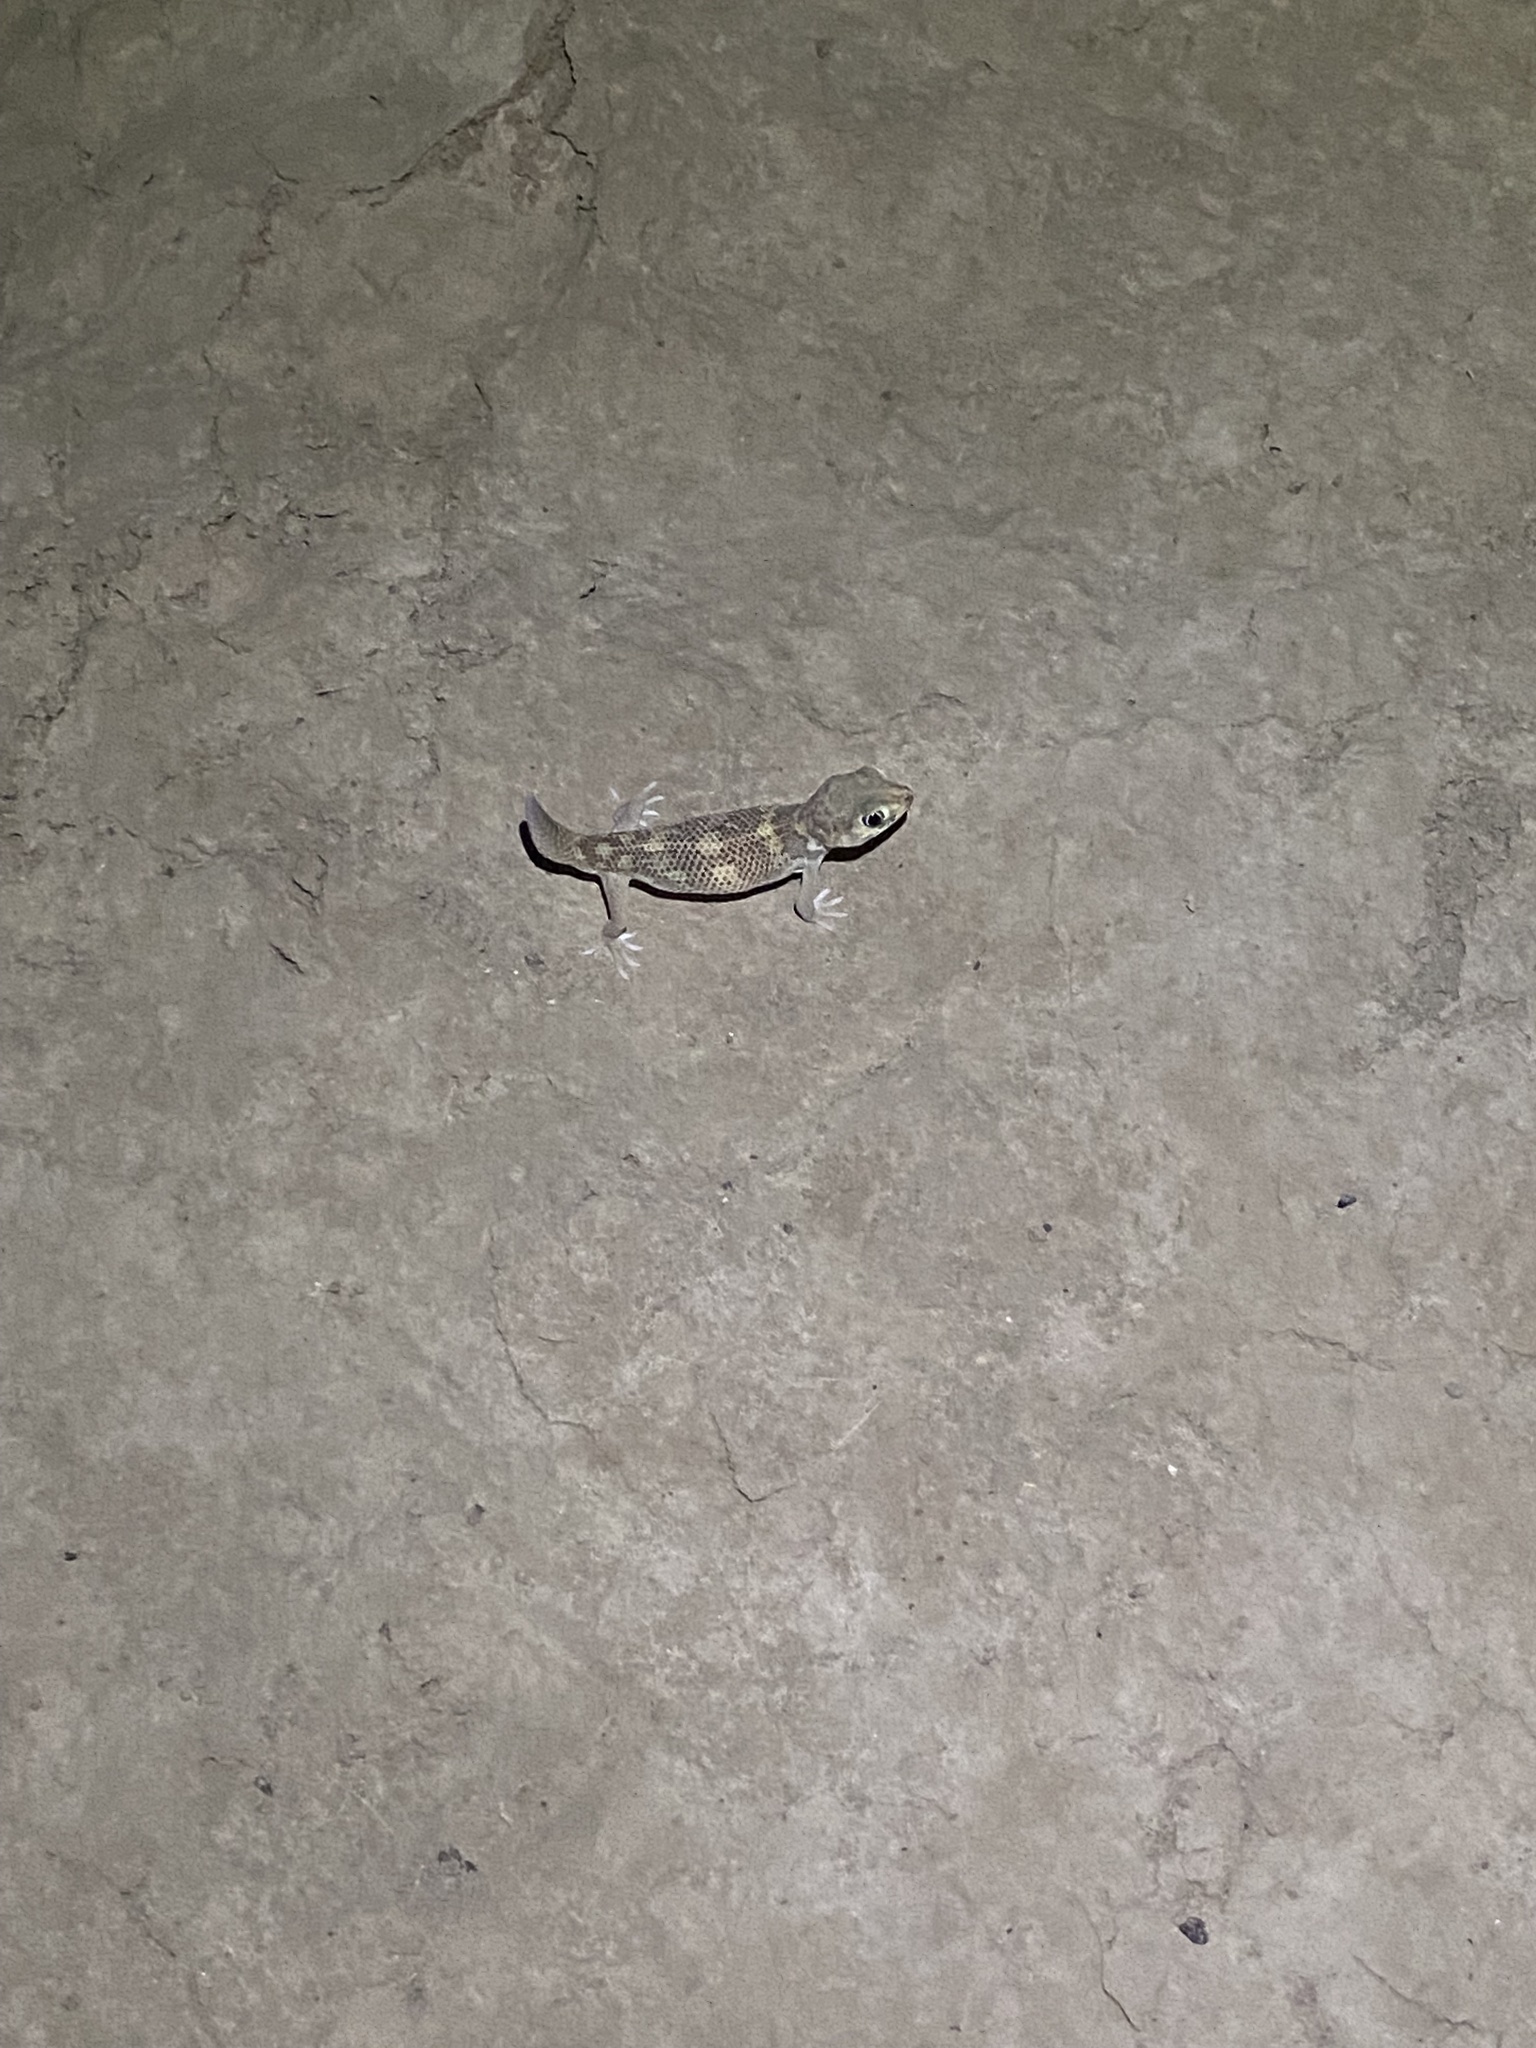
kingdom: Animalia
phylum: Chordata
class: Squamata
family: Sphaerodactylidae
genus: Teratoscincus
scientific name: Teratoscincus bedriagai
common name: Bedriaga's plate-tailed gecko
